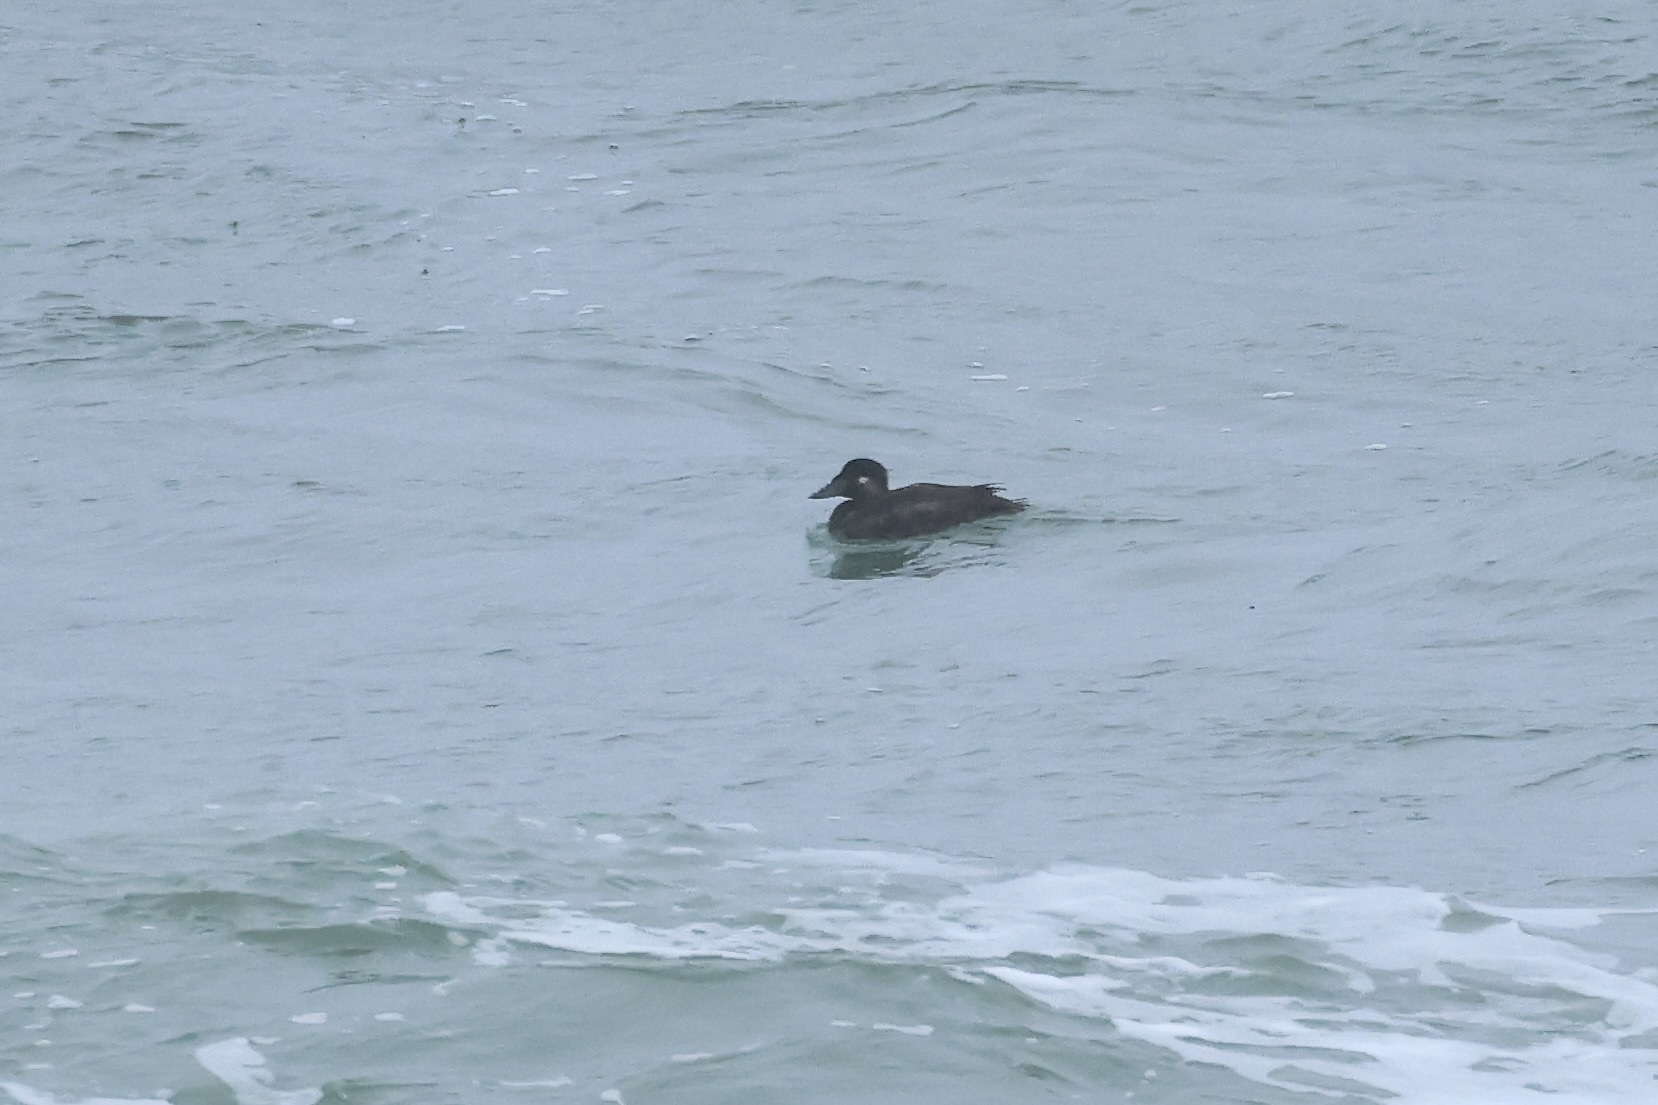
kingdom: Animalia
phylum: Chordata
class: Aves
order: Anseriformes
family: Anatidae
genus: Melanitta
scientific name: Melanitta perspicillata
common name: Surf scoter
